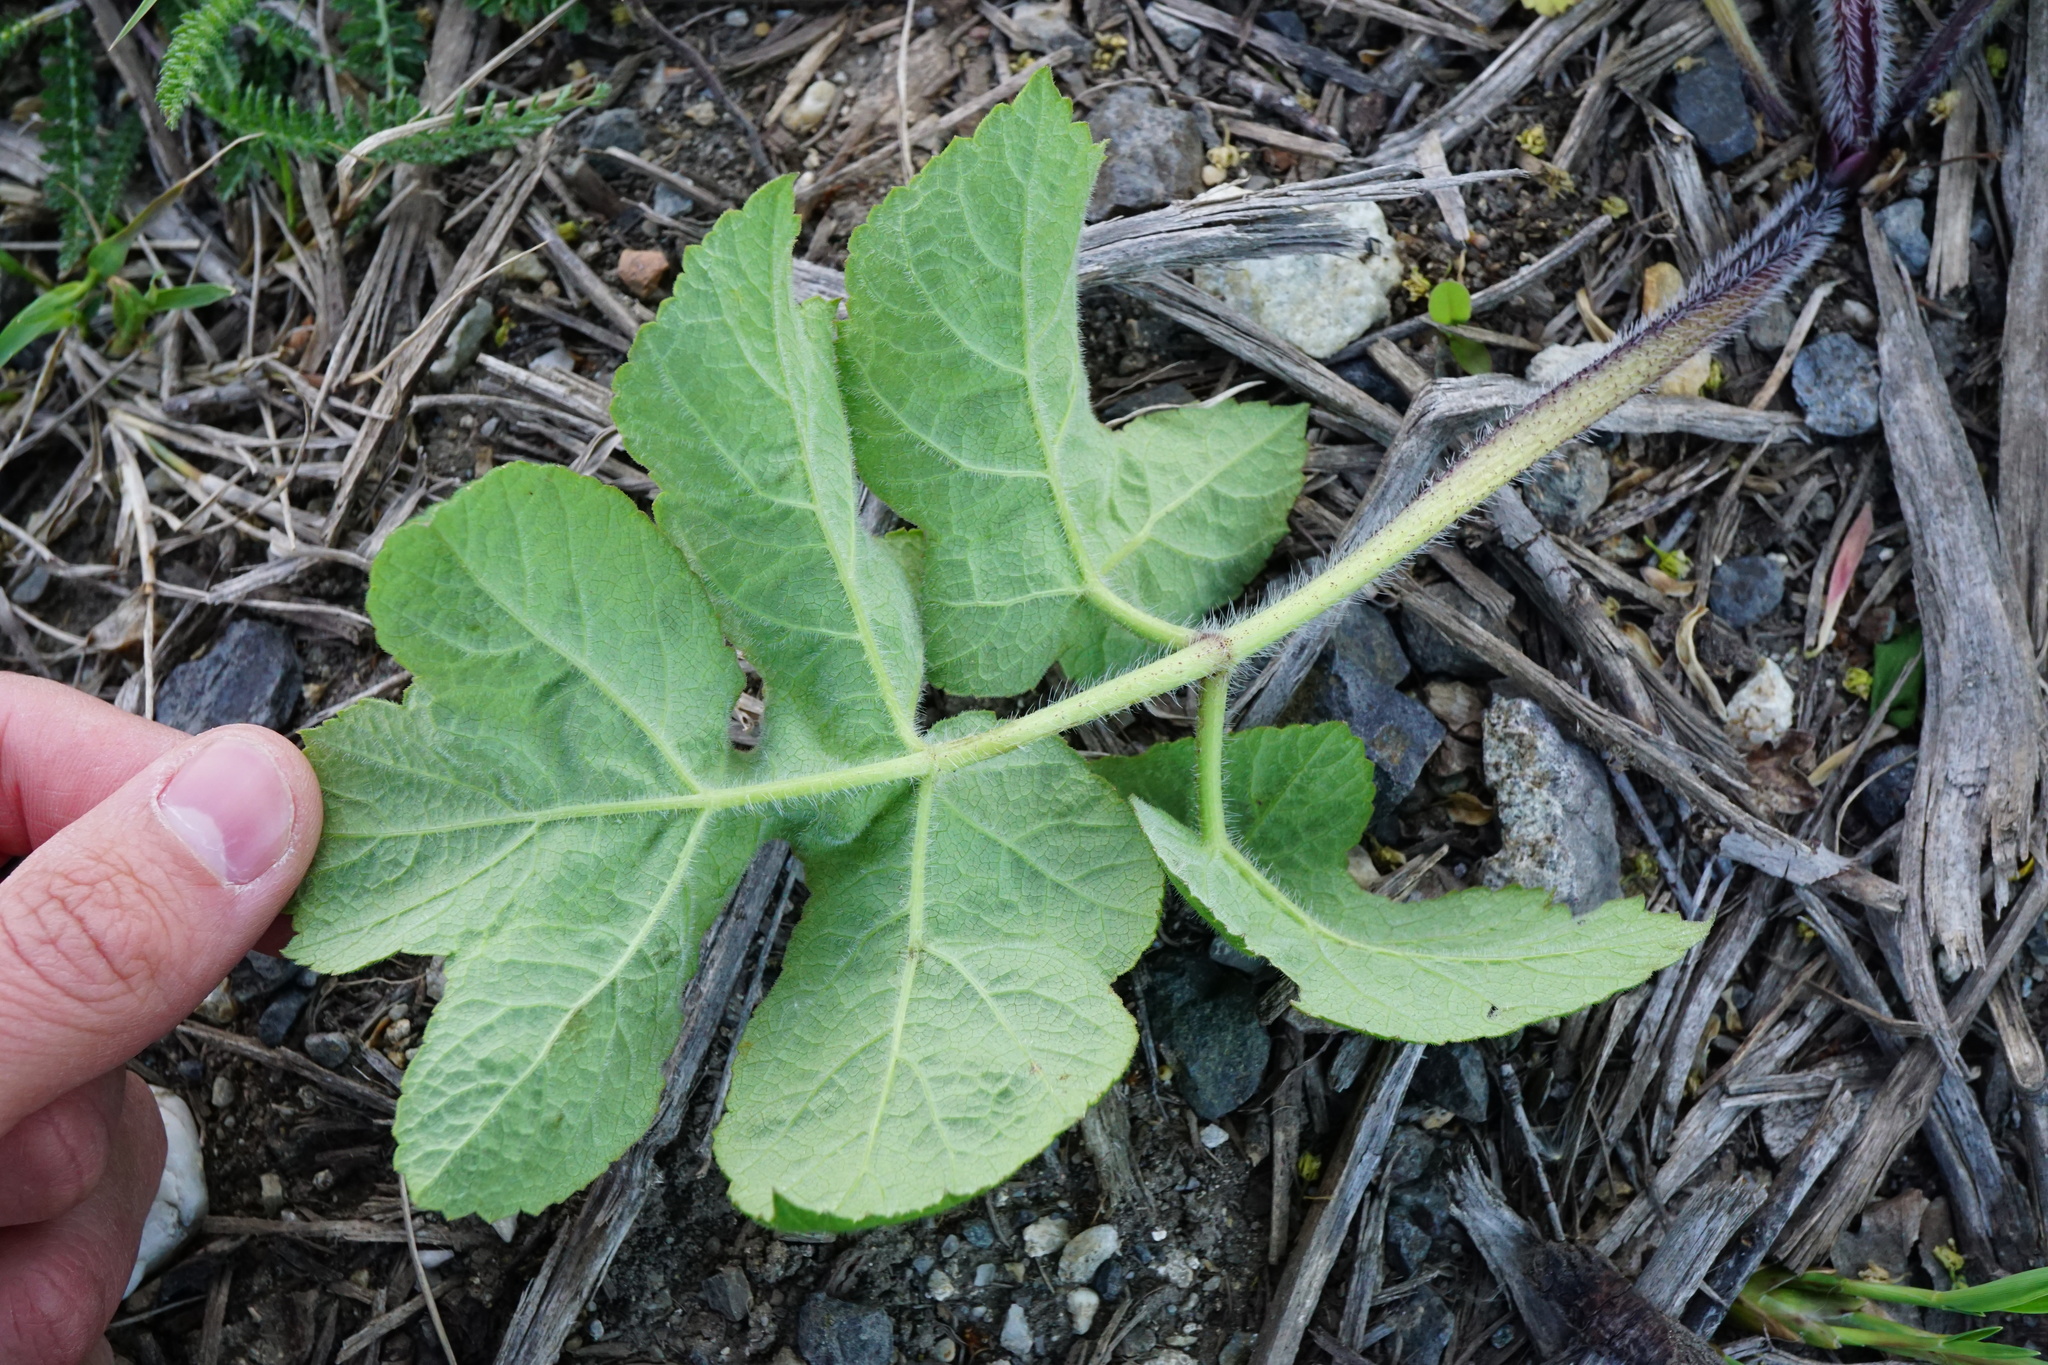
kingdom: Plantae
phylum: Tracheophyta
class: Magnoliopsida
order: Apiales
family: Apiaceae
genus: Heracleum
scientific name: Heracleum sphondylium
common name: Hogweed
